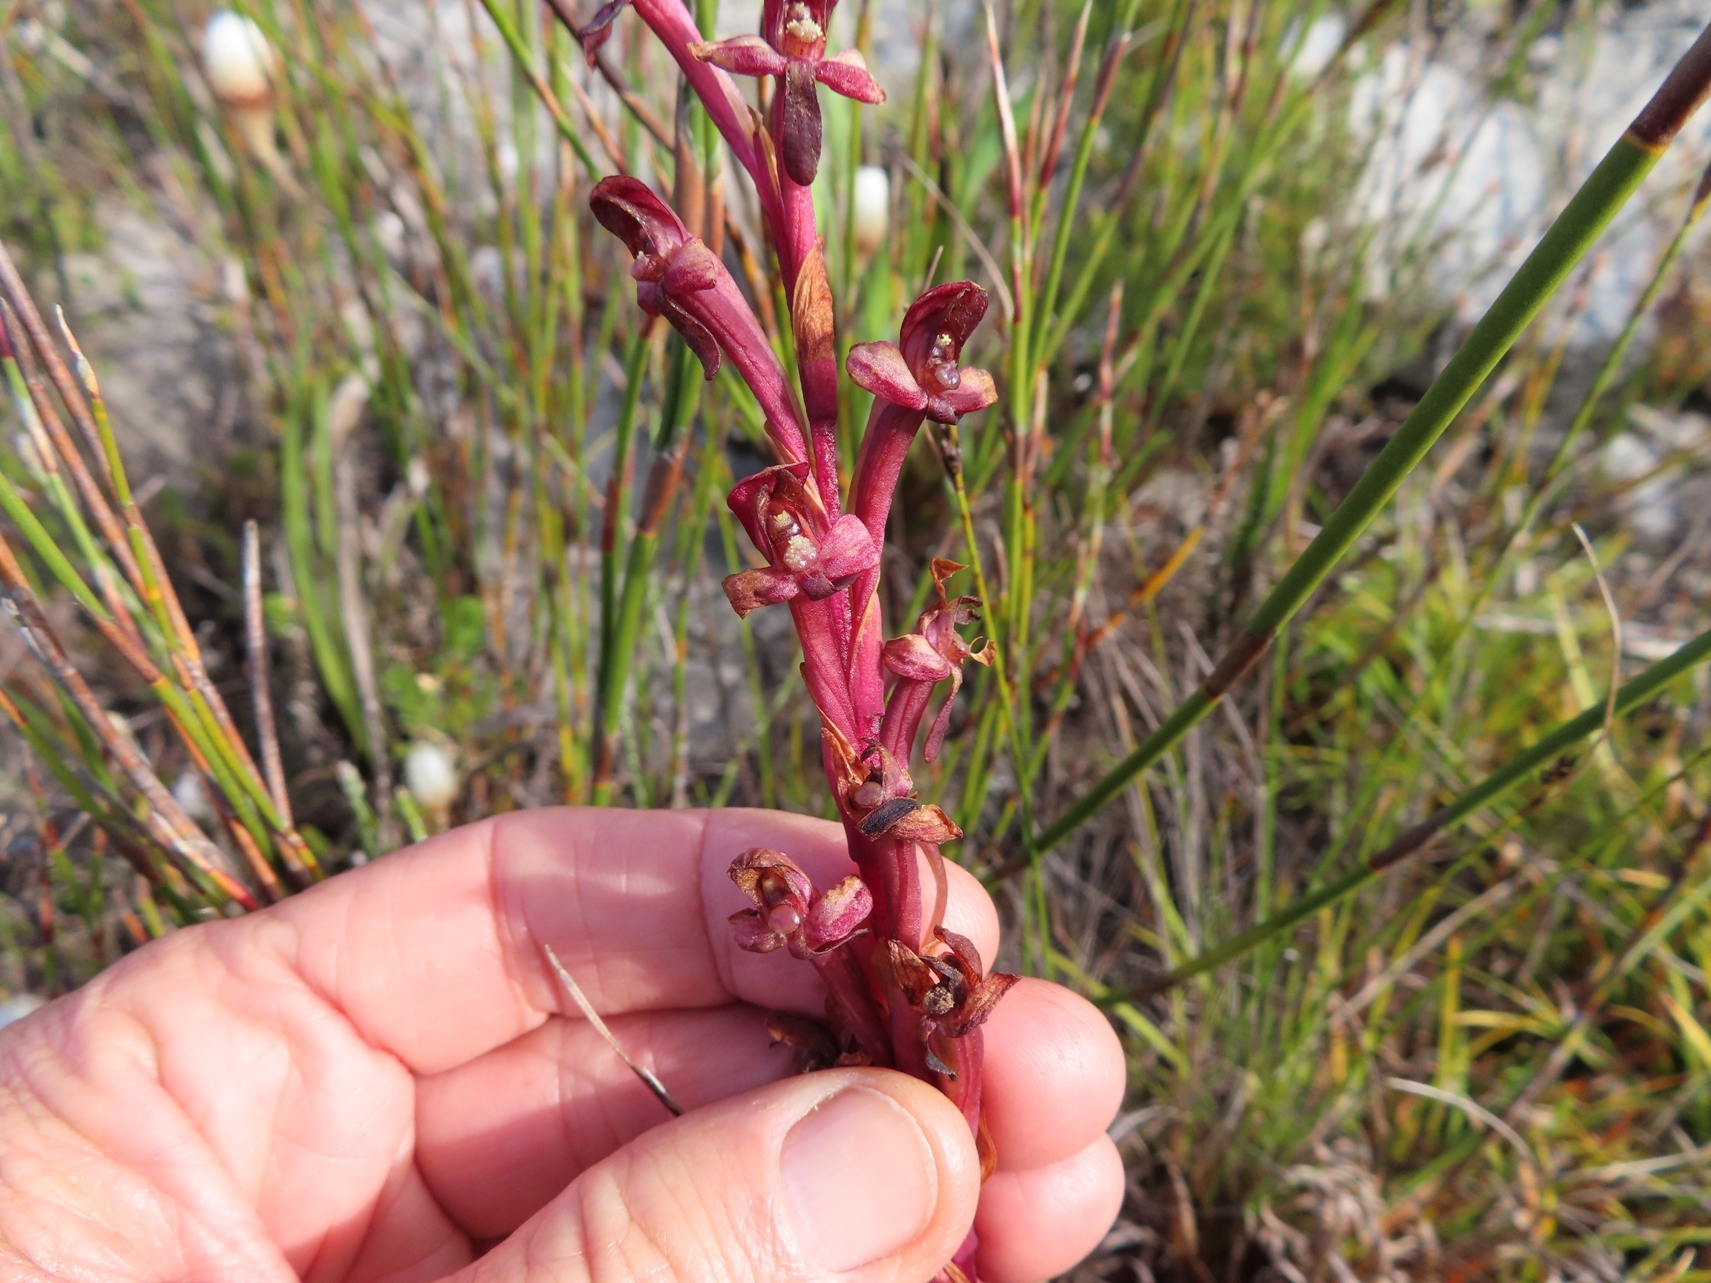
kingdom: Plantae
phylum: Tracheophyta
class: Liliopsida
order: Asparagales
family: Orchidaceae
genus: Disa
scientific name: Disa ophrydea
